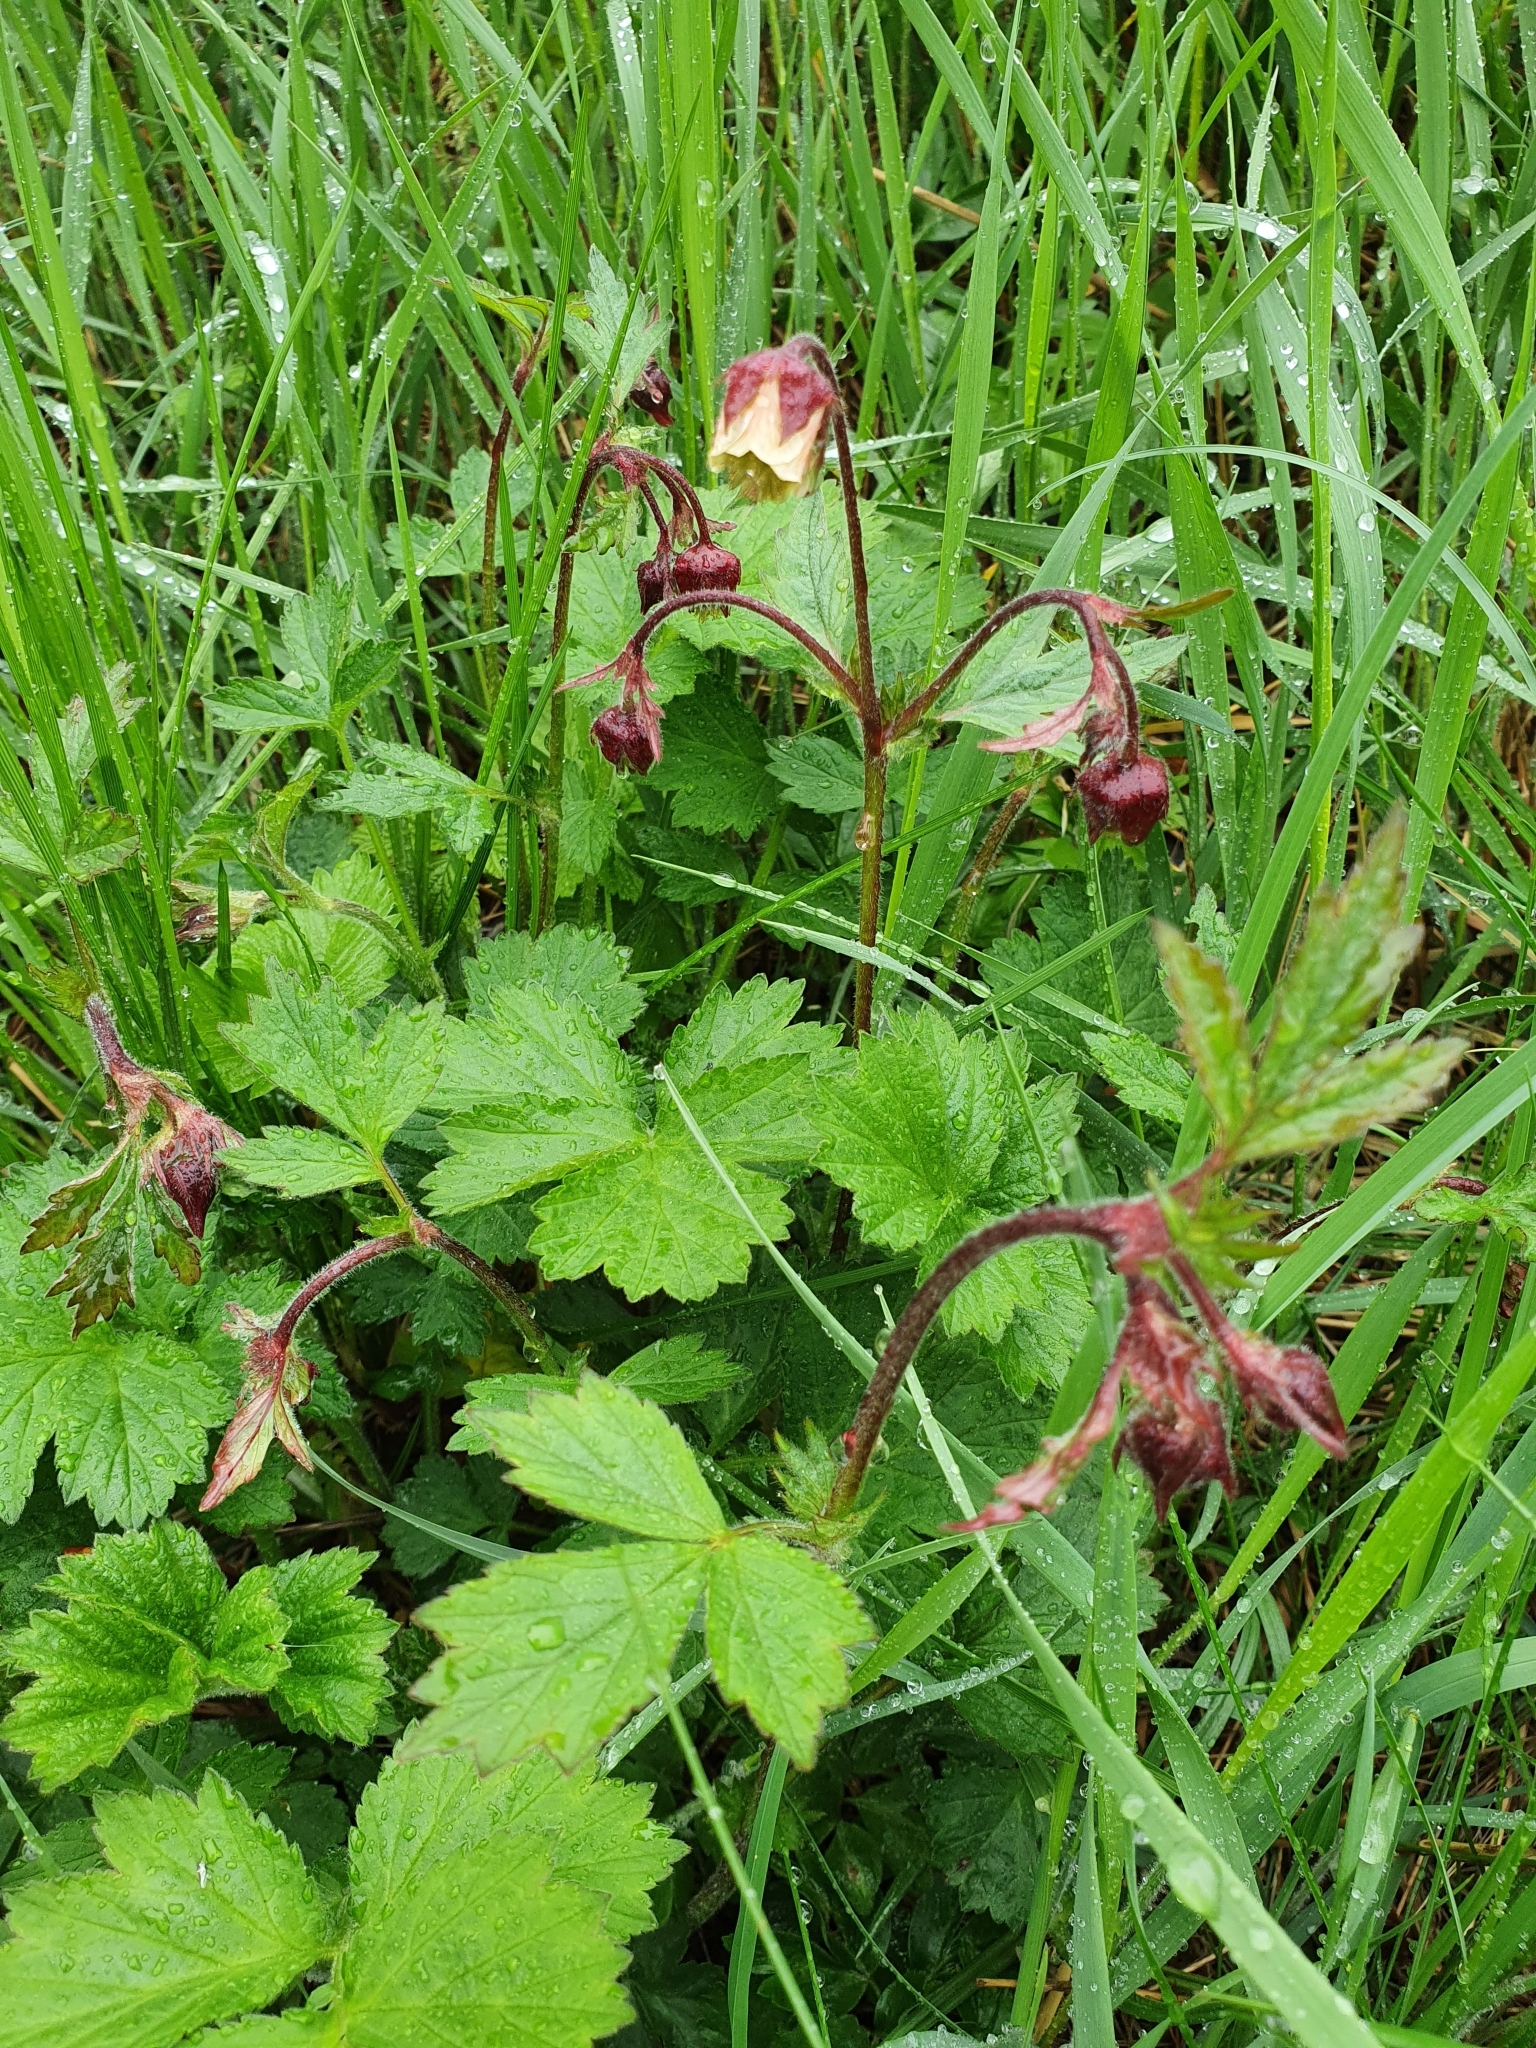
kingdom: Plantae
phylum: Tracheophyta
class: Magnoliopsida
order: Rosales
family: Rosaceae
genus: Geum
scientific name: Geum rivale
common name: Water avens
